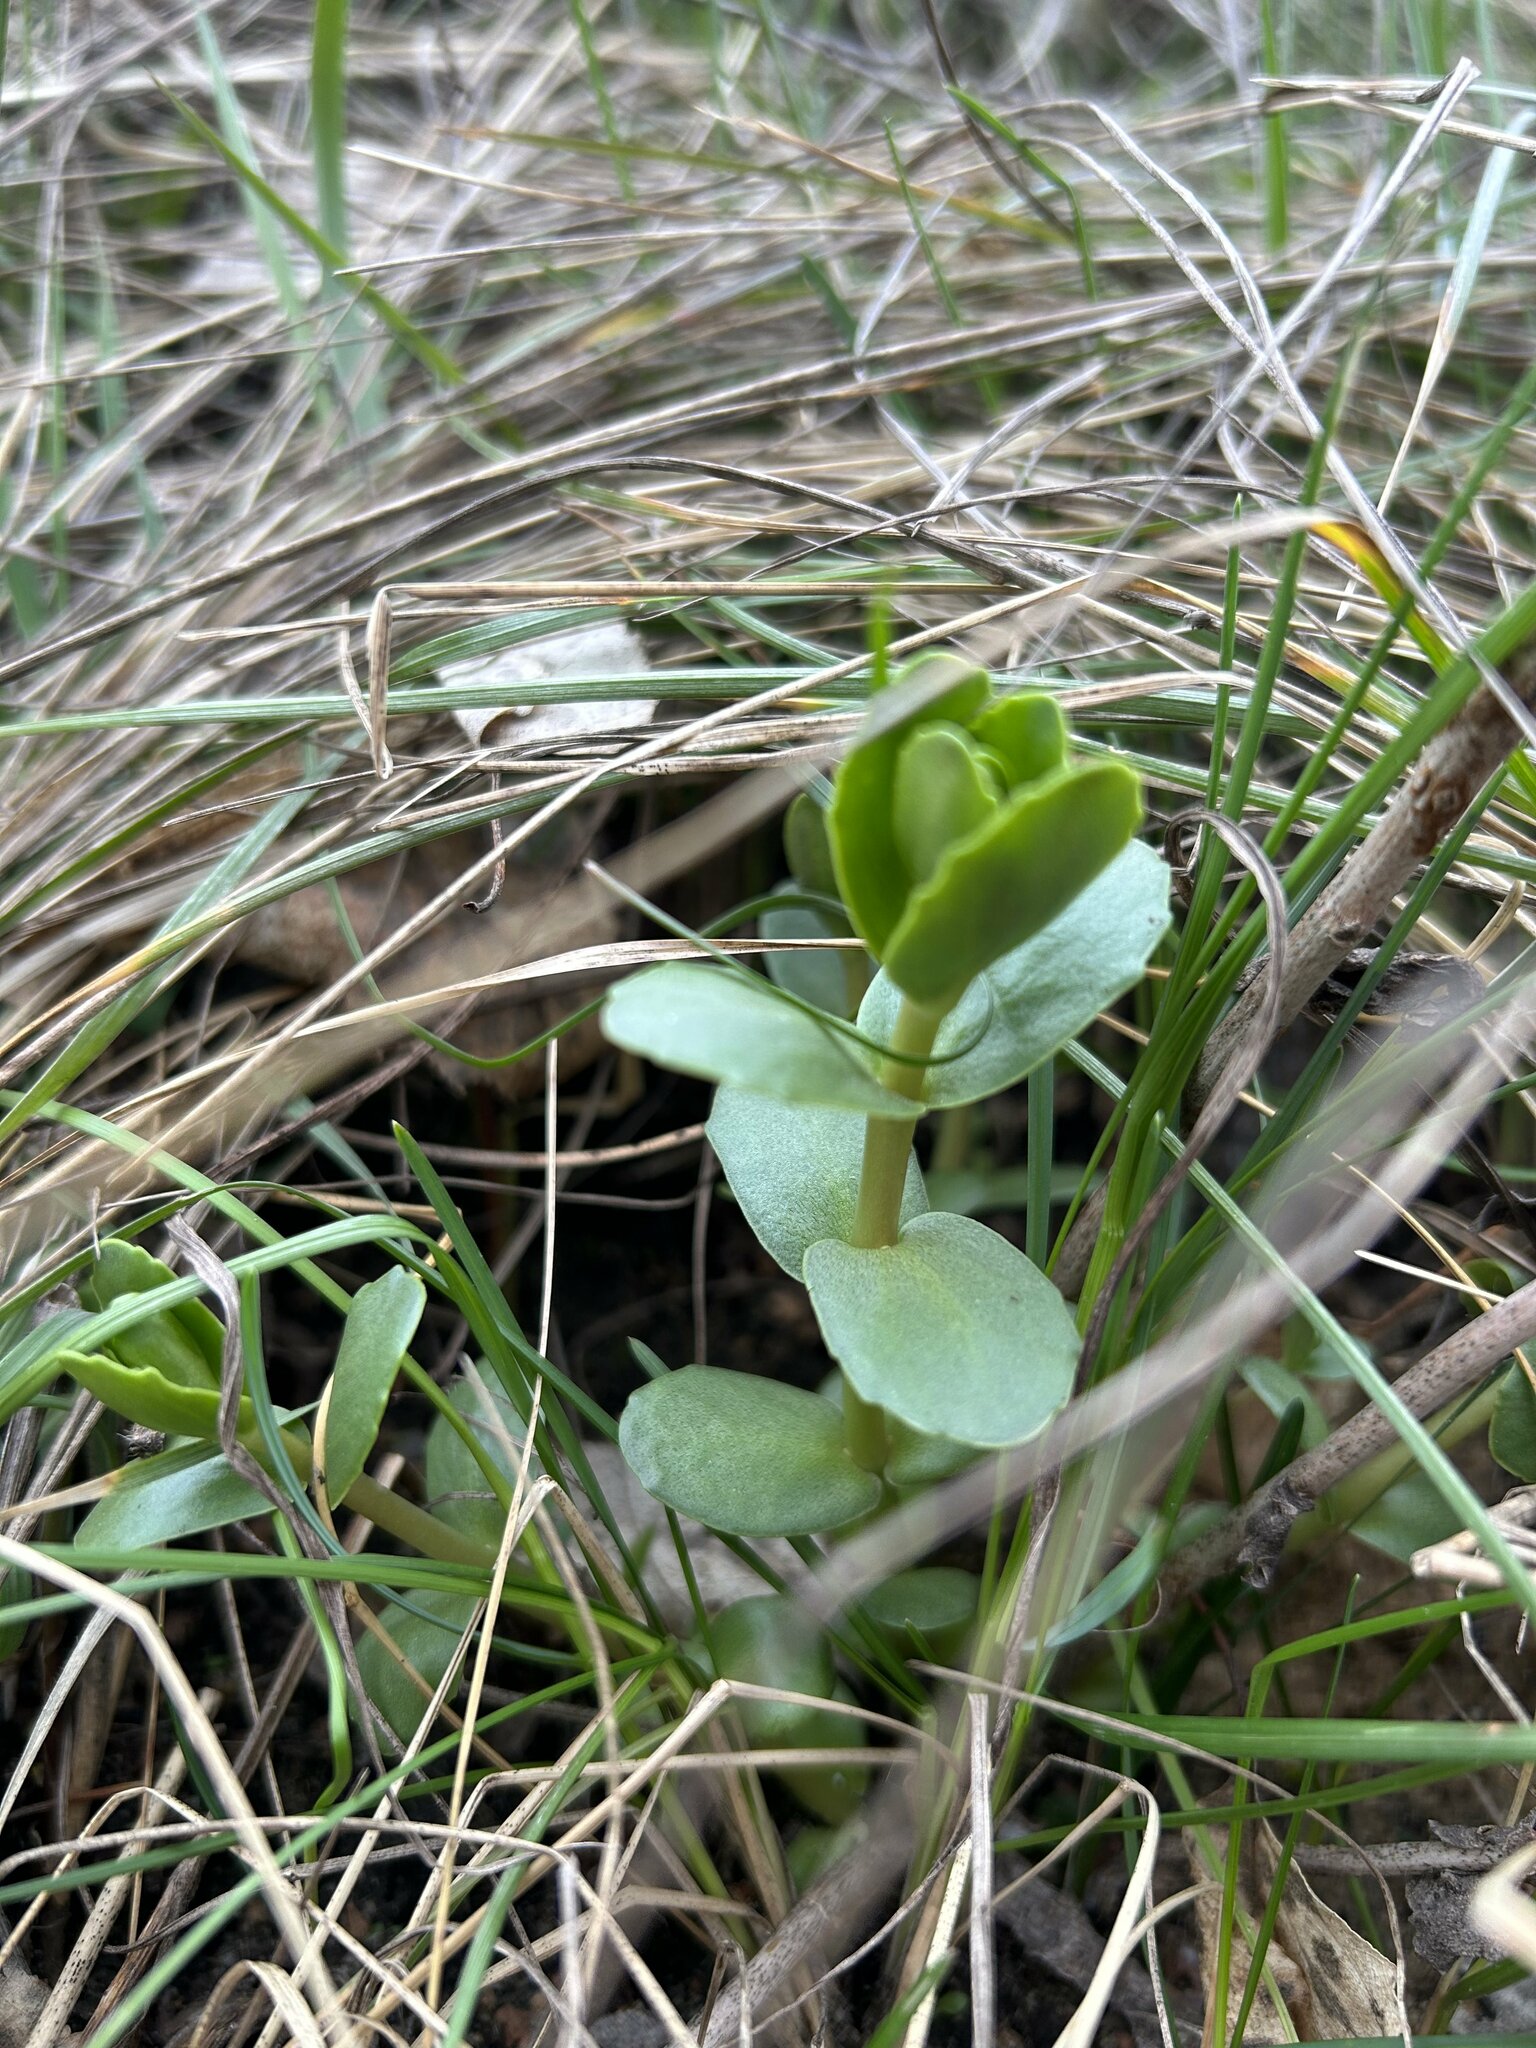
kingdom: Plantae
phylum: Tracheophyta
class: Magnoliopsida
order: Saxifragales
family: Crassulaceae
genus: Hylotelephium
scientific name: Hylotelephium maximum
